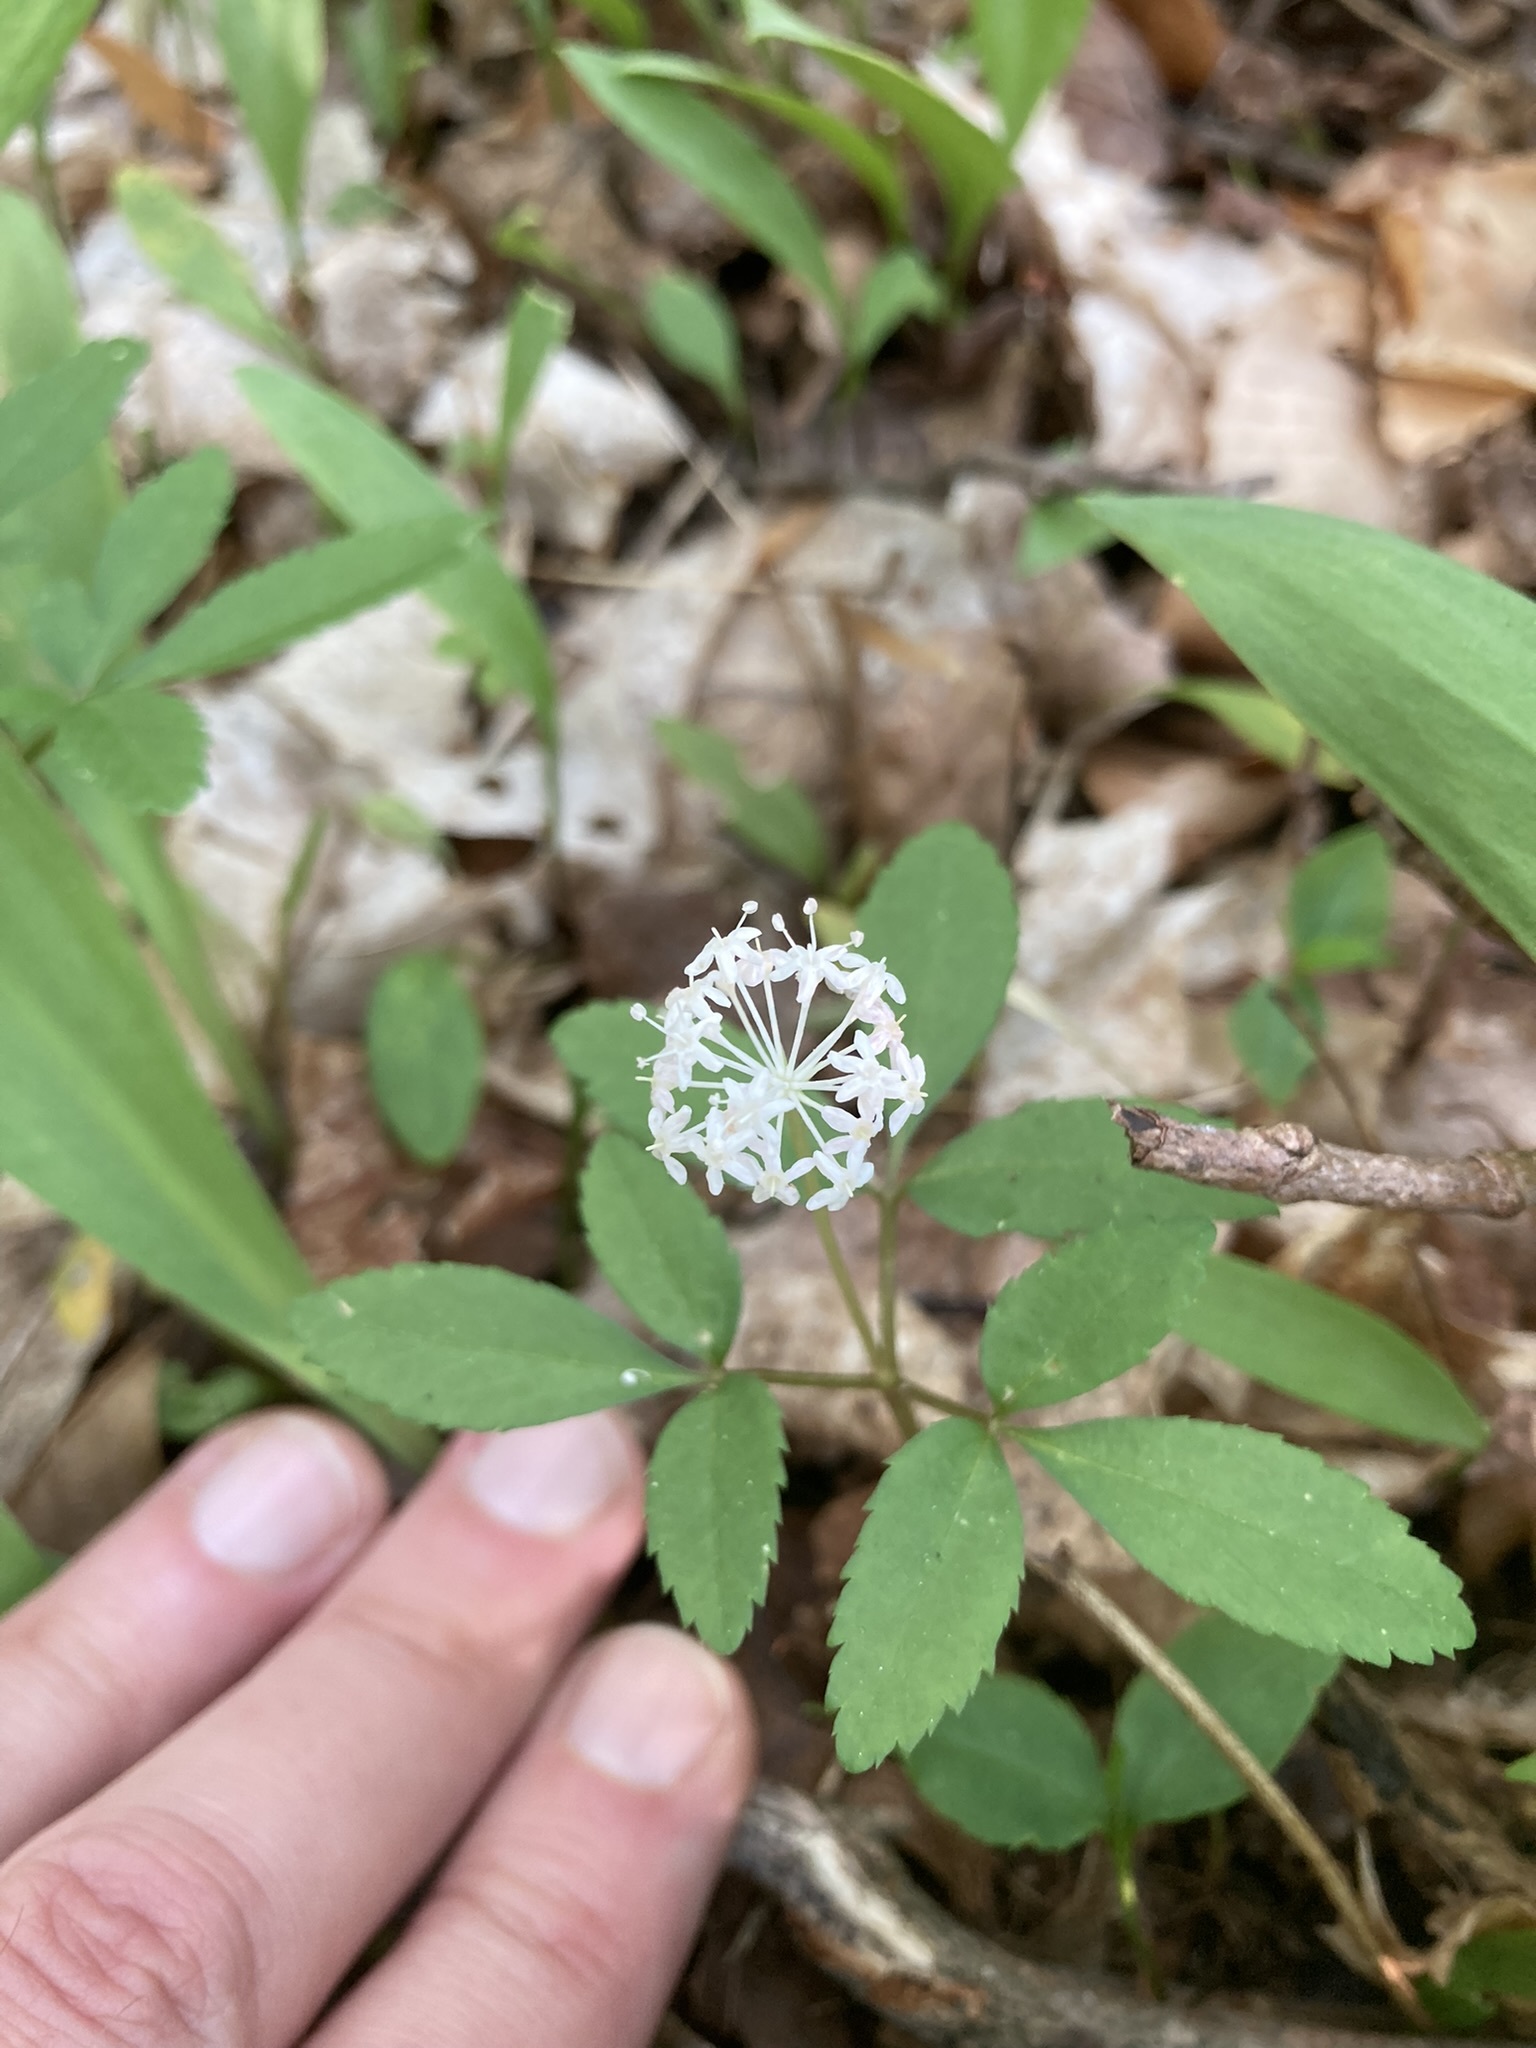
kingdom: Plantae
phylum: Tracheophyta
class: Magnoliopsida
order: Apiales
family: Araliaceae
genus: Panax
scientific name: Panax trifolius
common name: Dwarf ginseng
